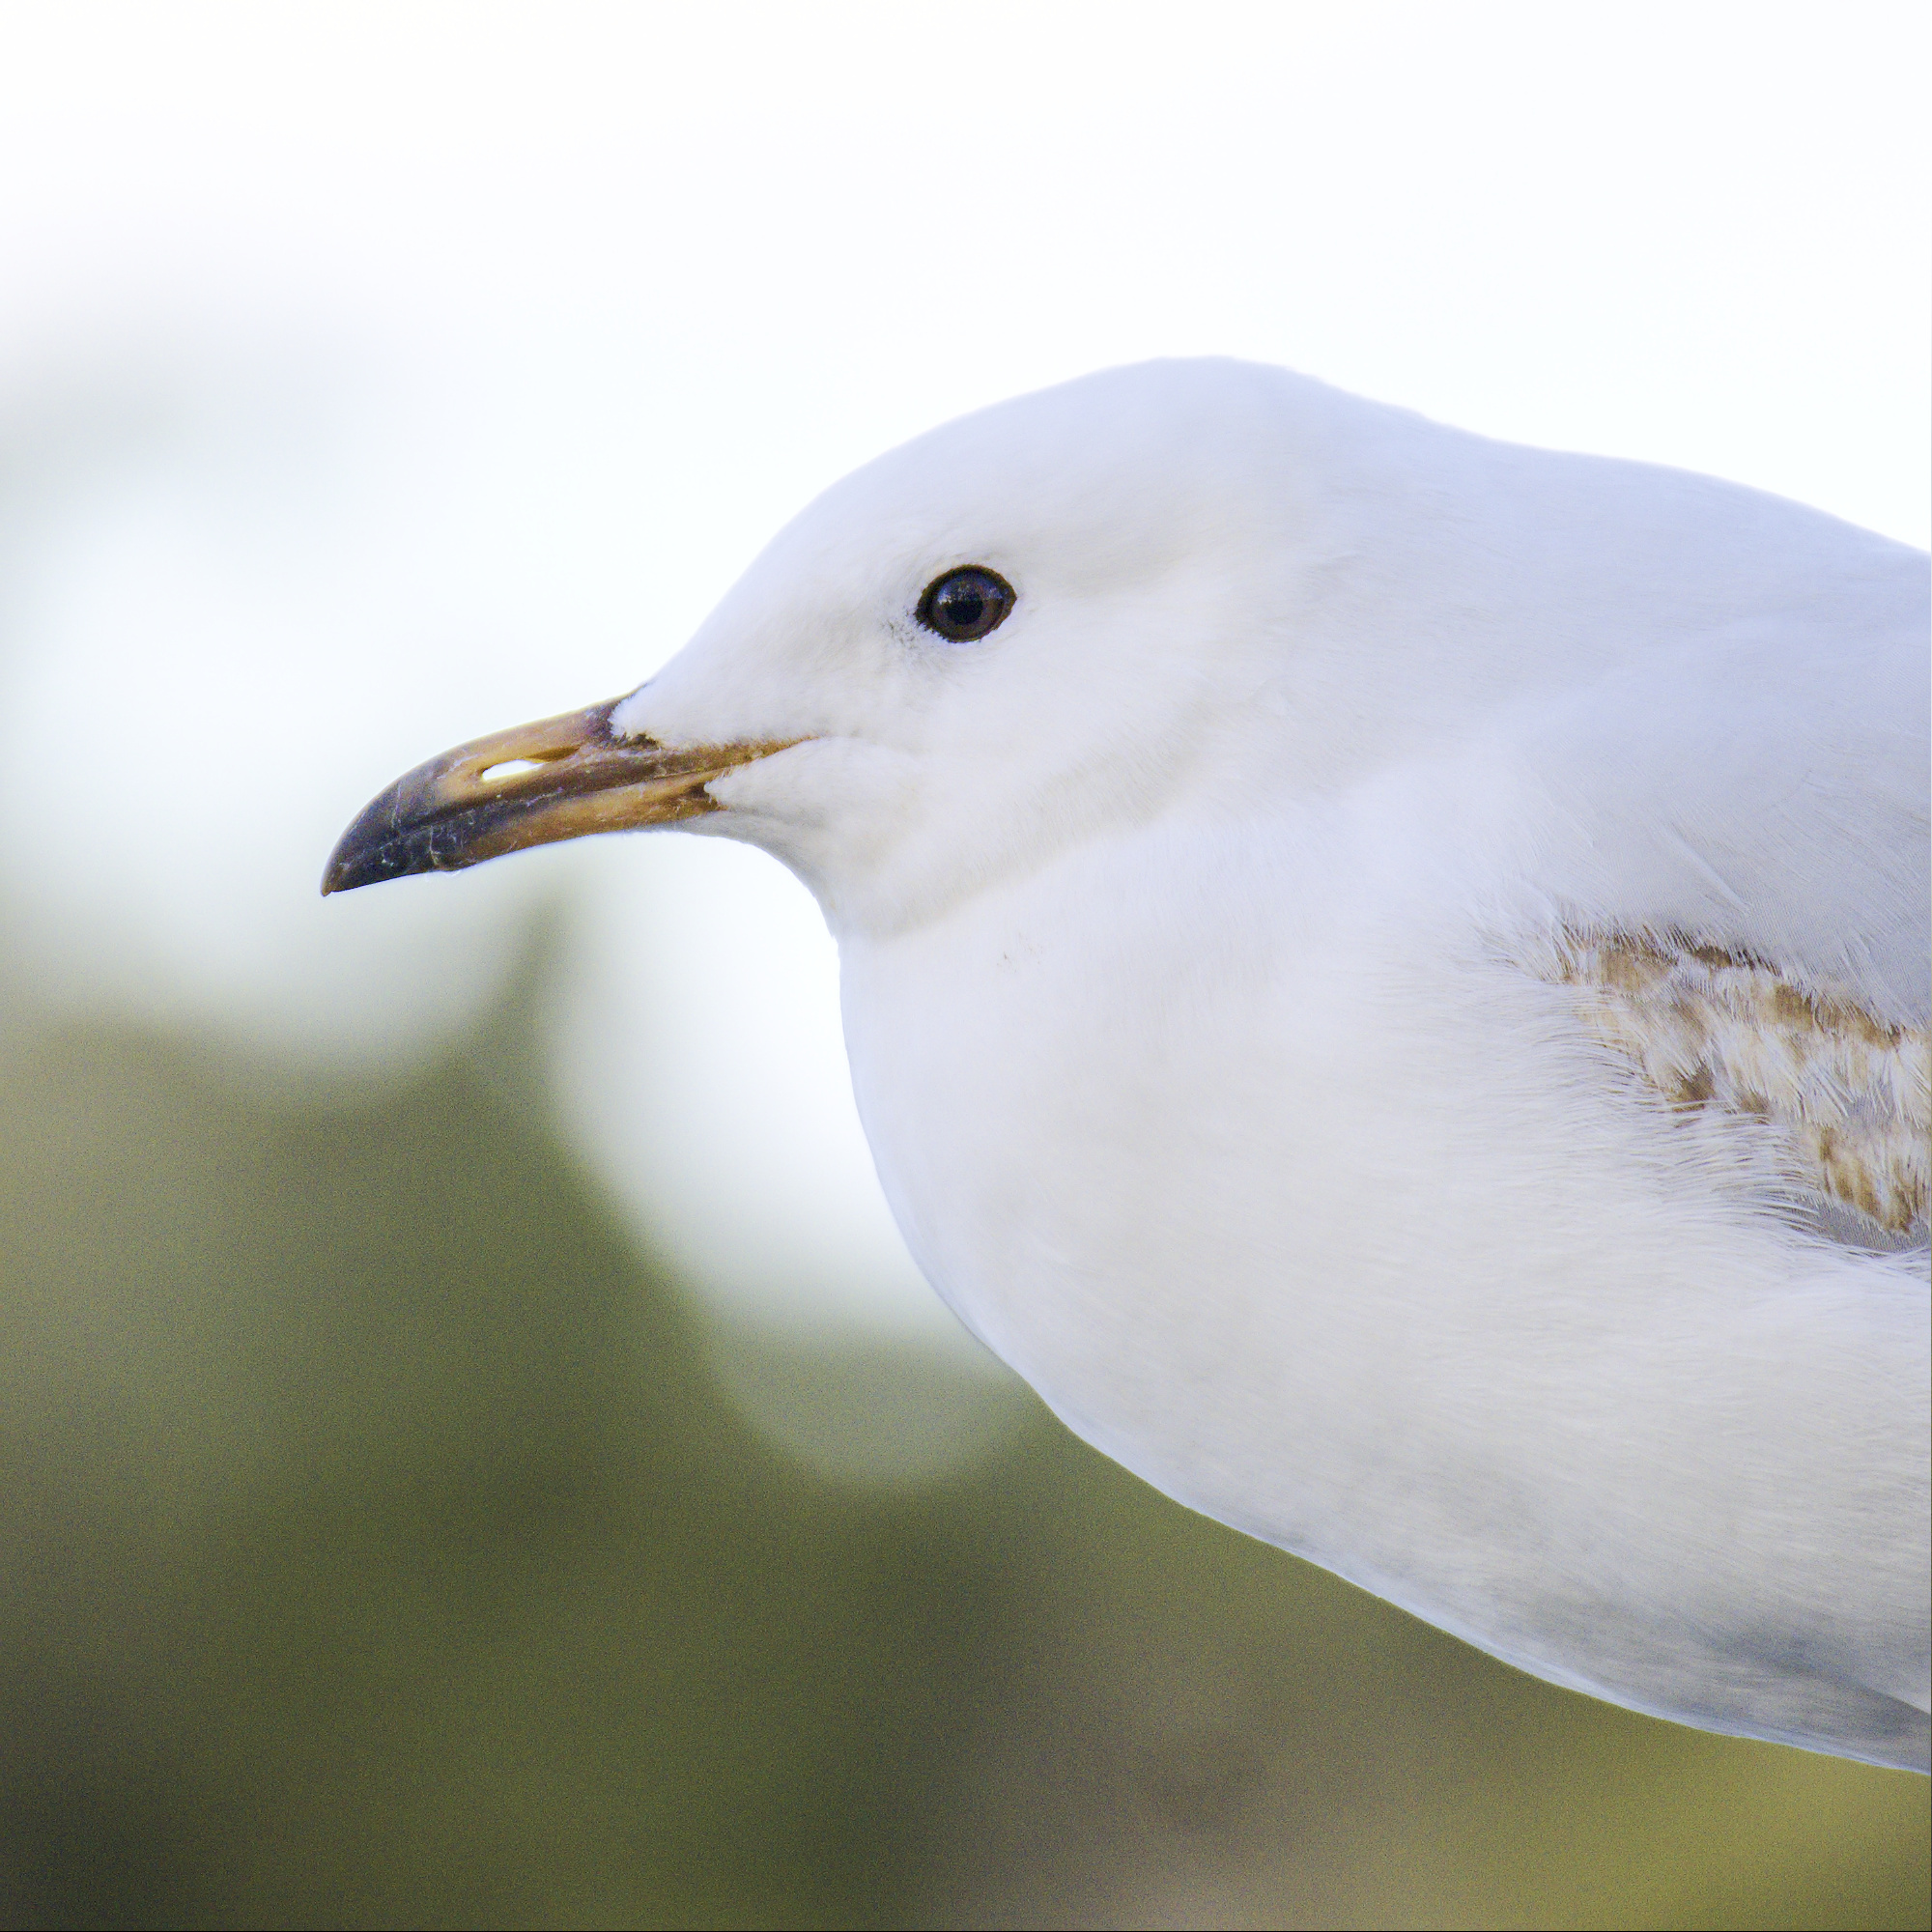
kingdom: Animalia
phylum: Chordata
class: Aves
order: Charadriiformes
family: Laridae
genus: Chroicocephalus
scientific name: Chroicocephalus novaehollandiae
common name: Silver gull
